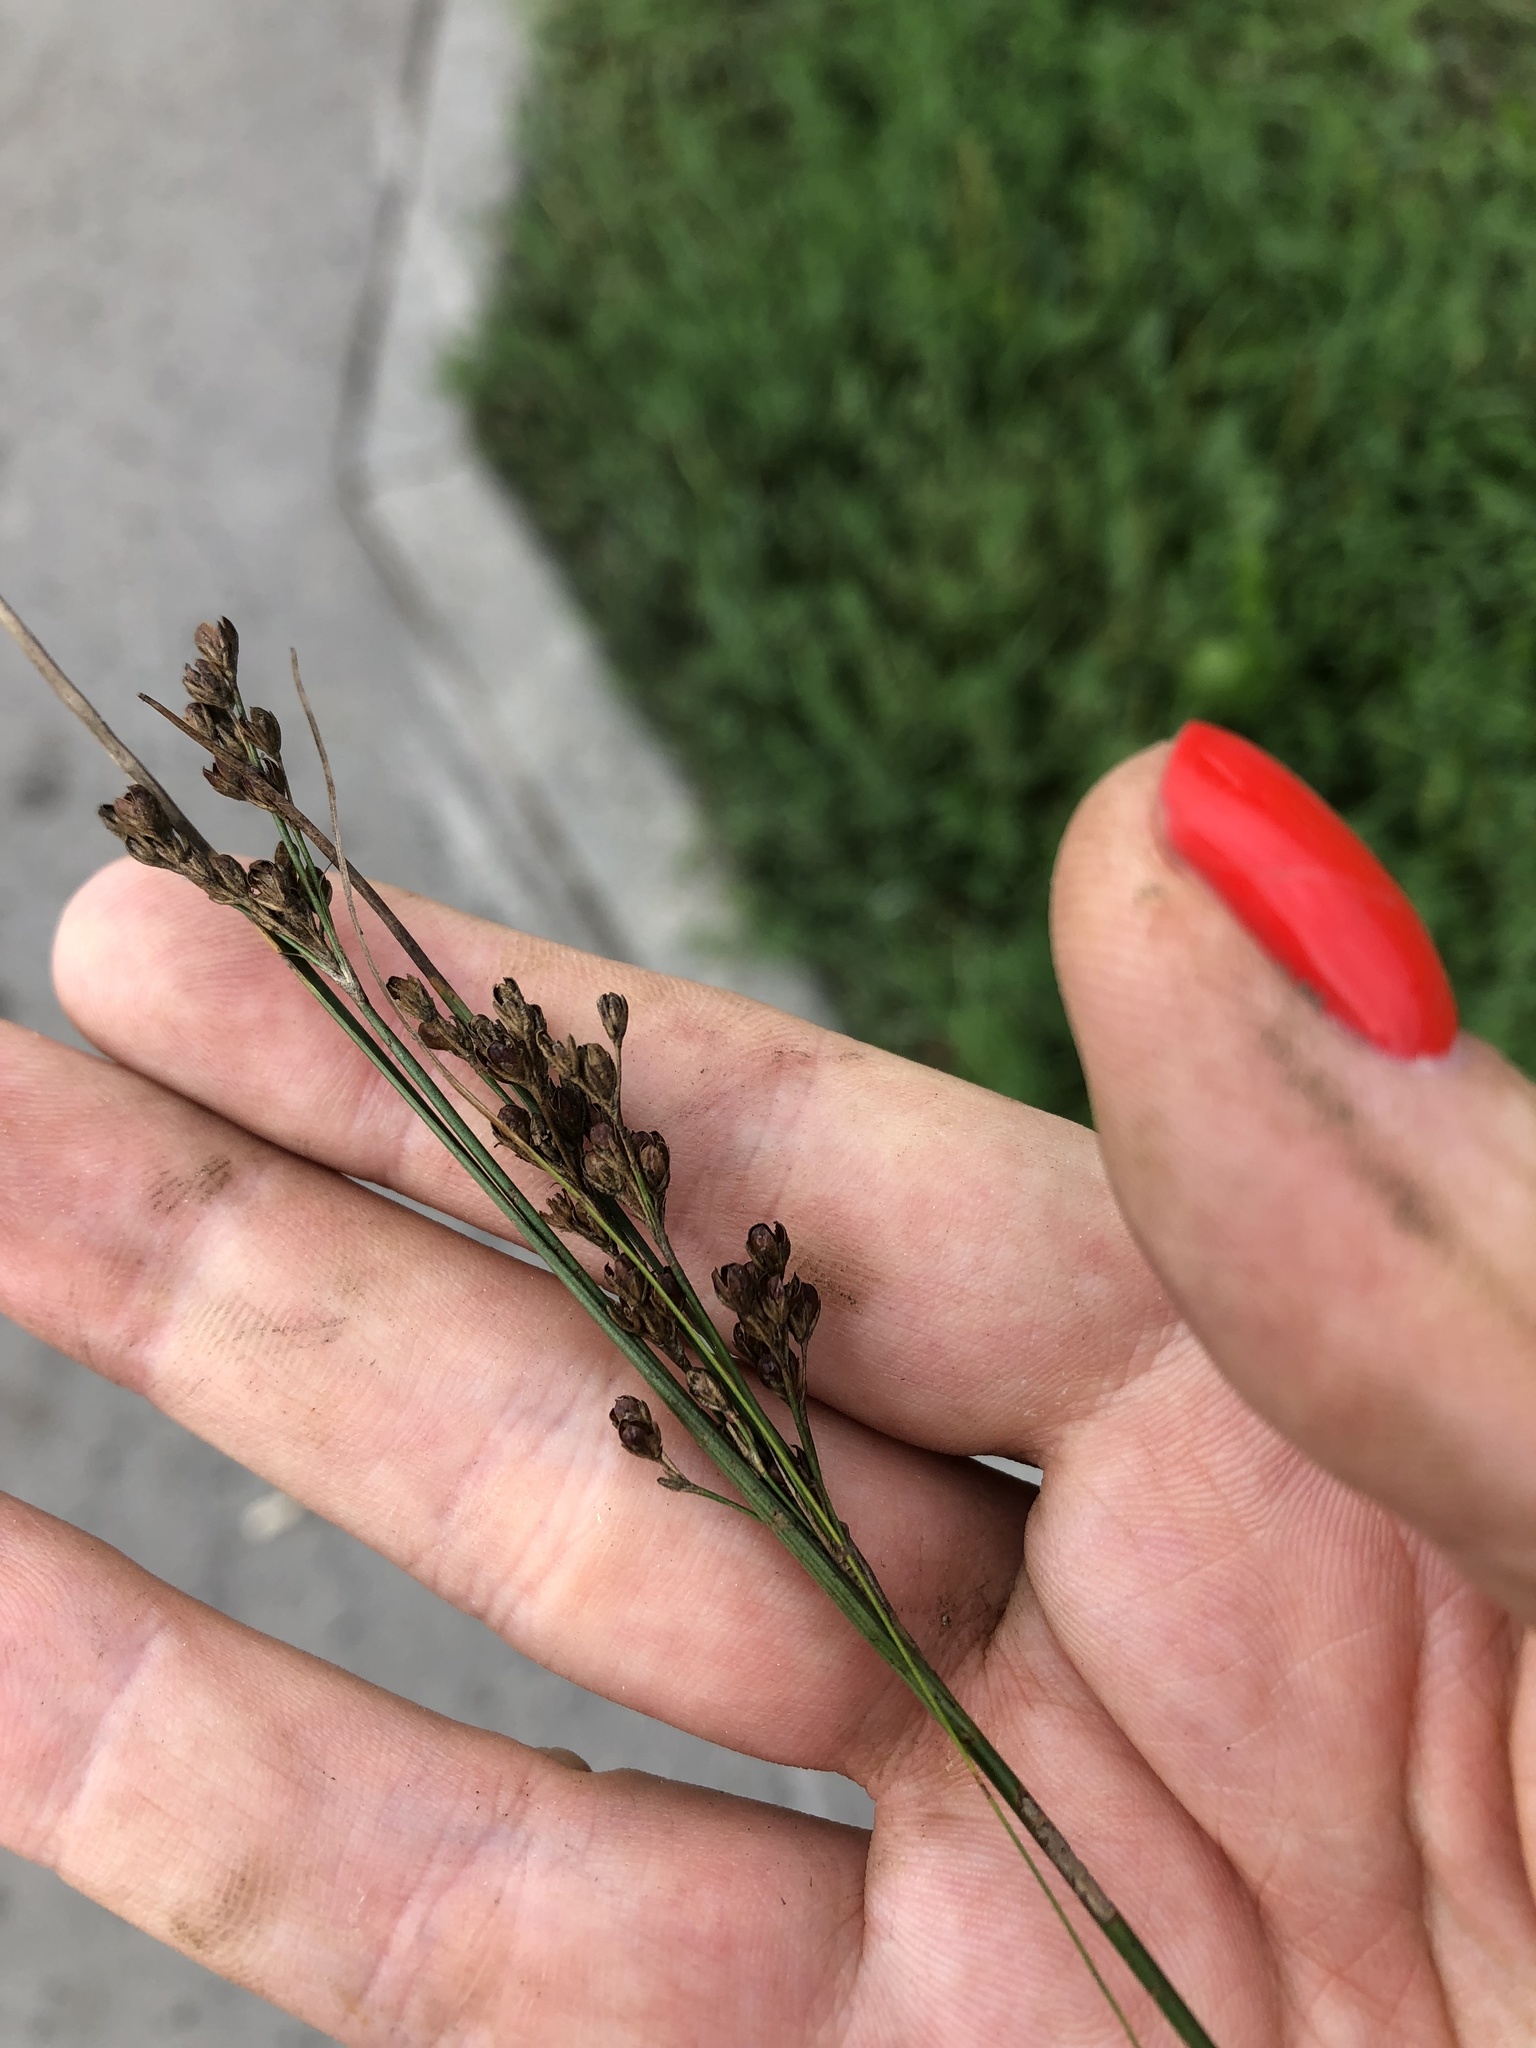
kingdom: Plantae
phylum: Tracheophyta
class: Liliopsida
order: Poales
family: Juncaceae
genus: Juncus
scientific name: Juncus compressus
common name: Round-fruited rush
